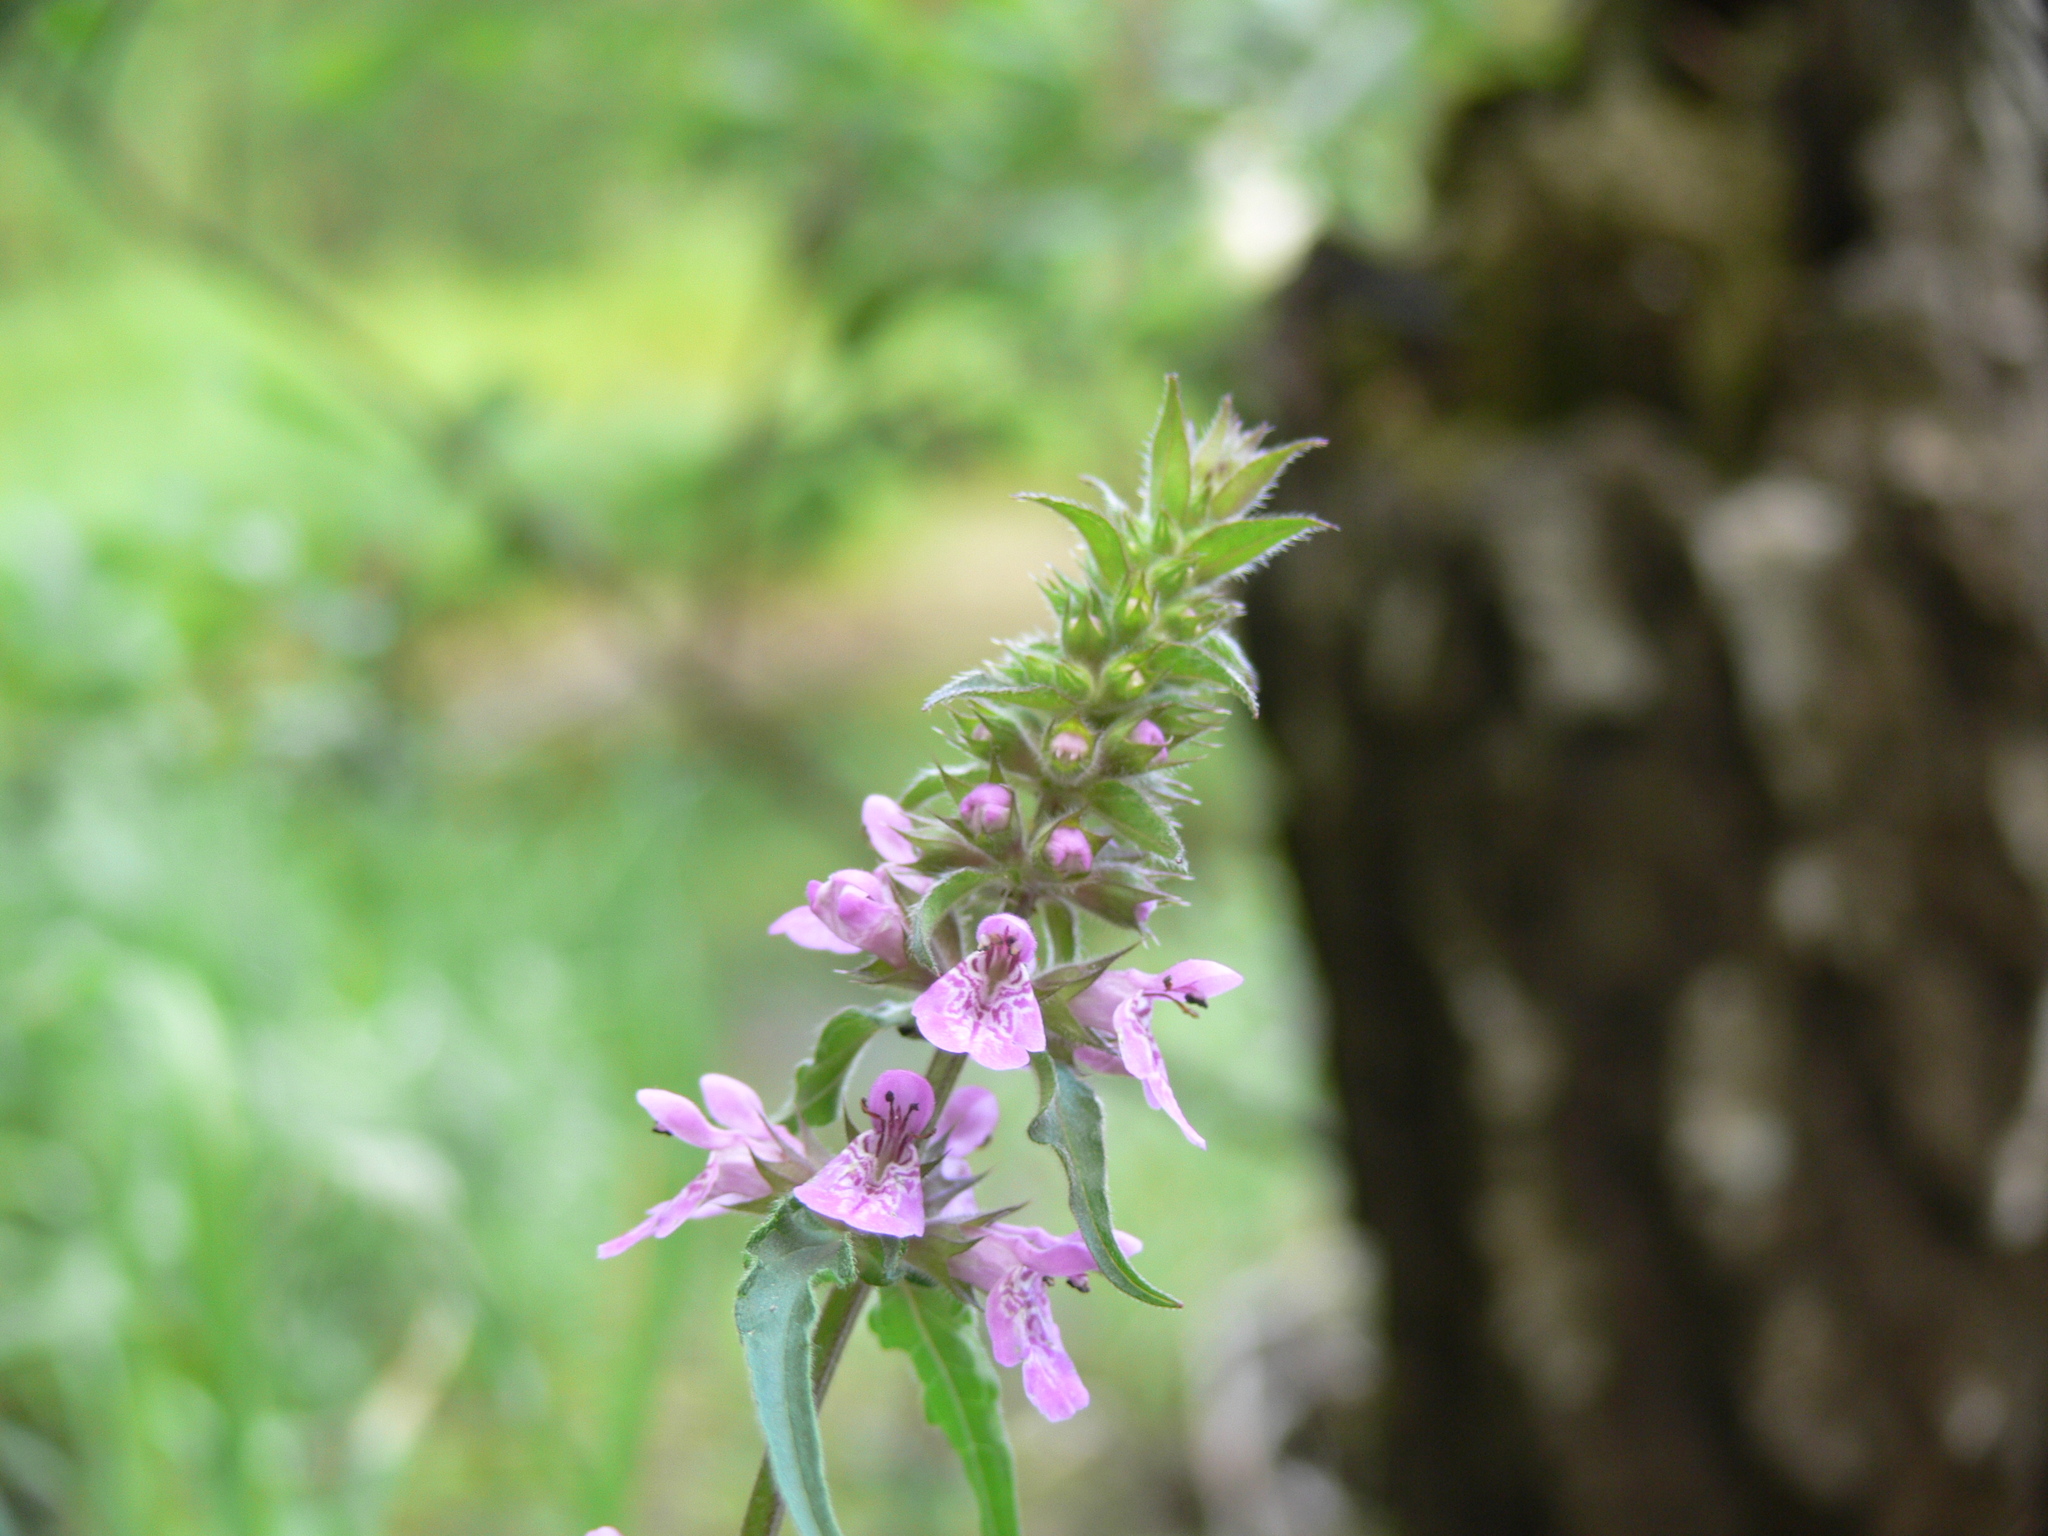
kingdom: Plantae
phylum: Tracheophyta
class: Magnoliopsida
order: Lamiales
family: Lamiaceae
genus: Stachys
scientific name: Stachys palustris
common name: Marsh woundwort
